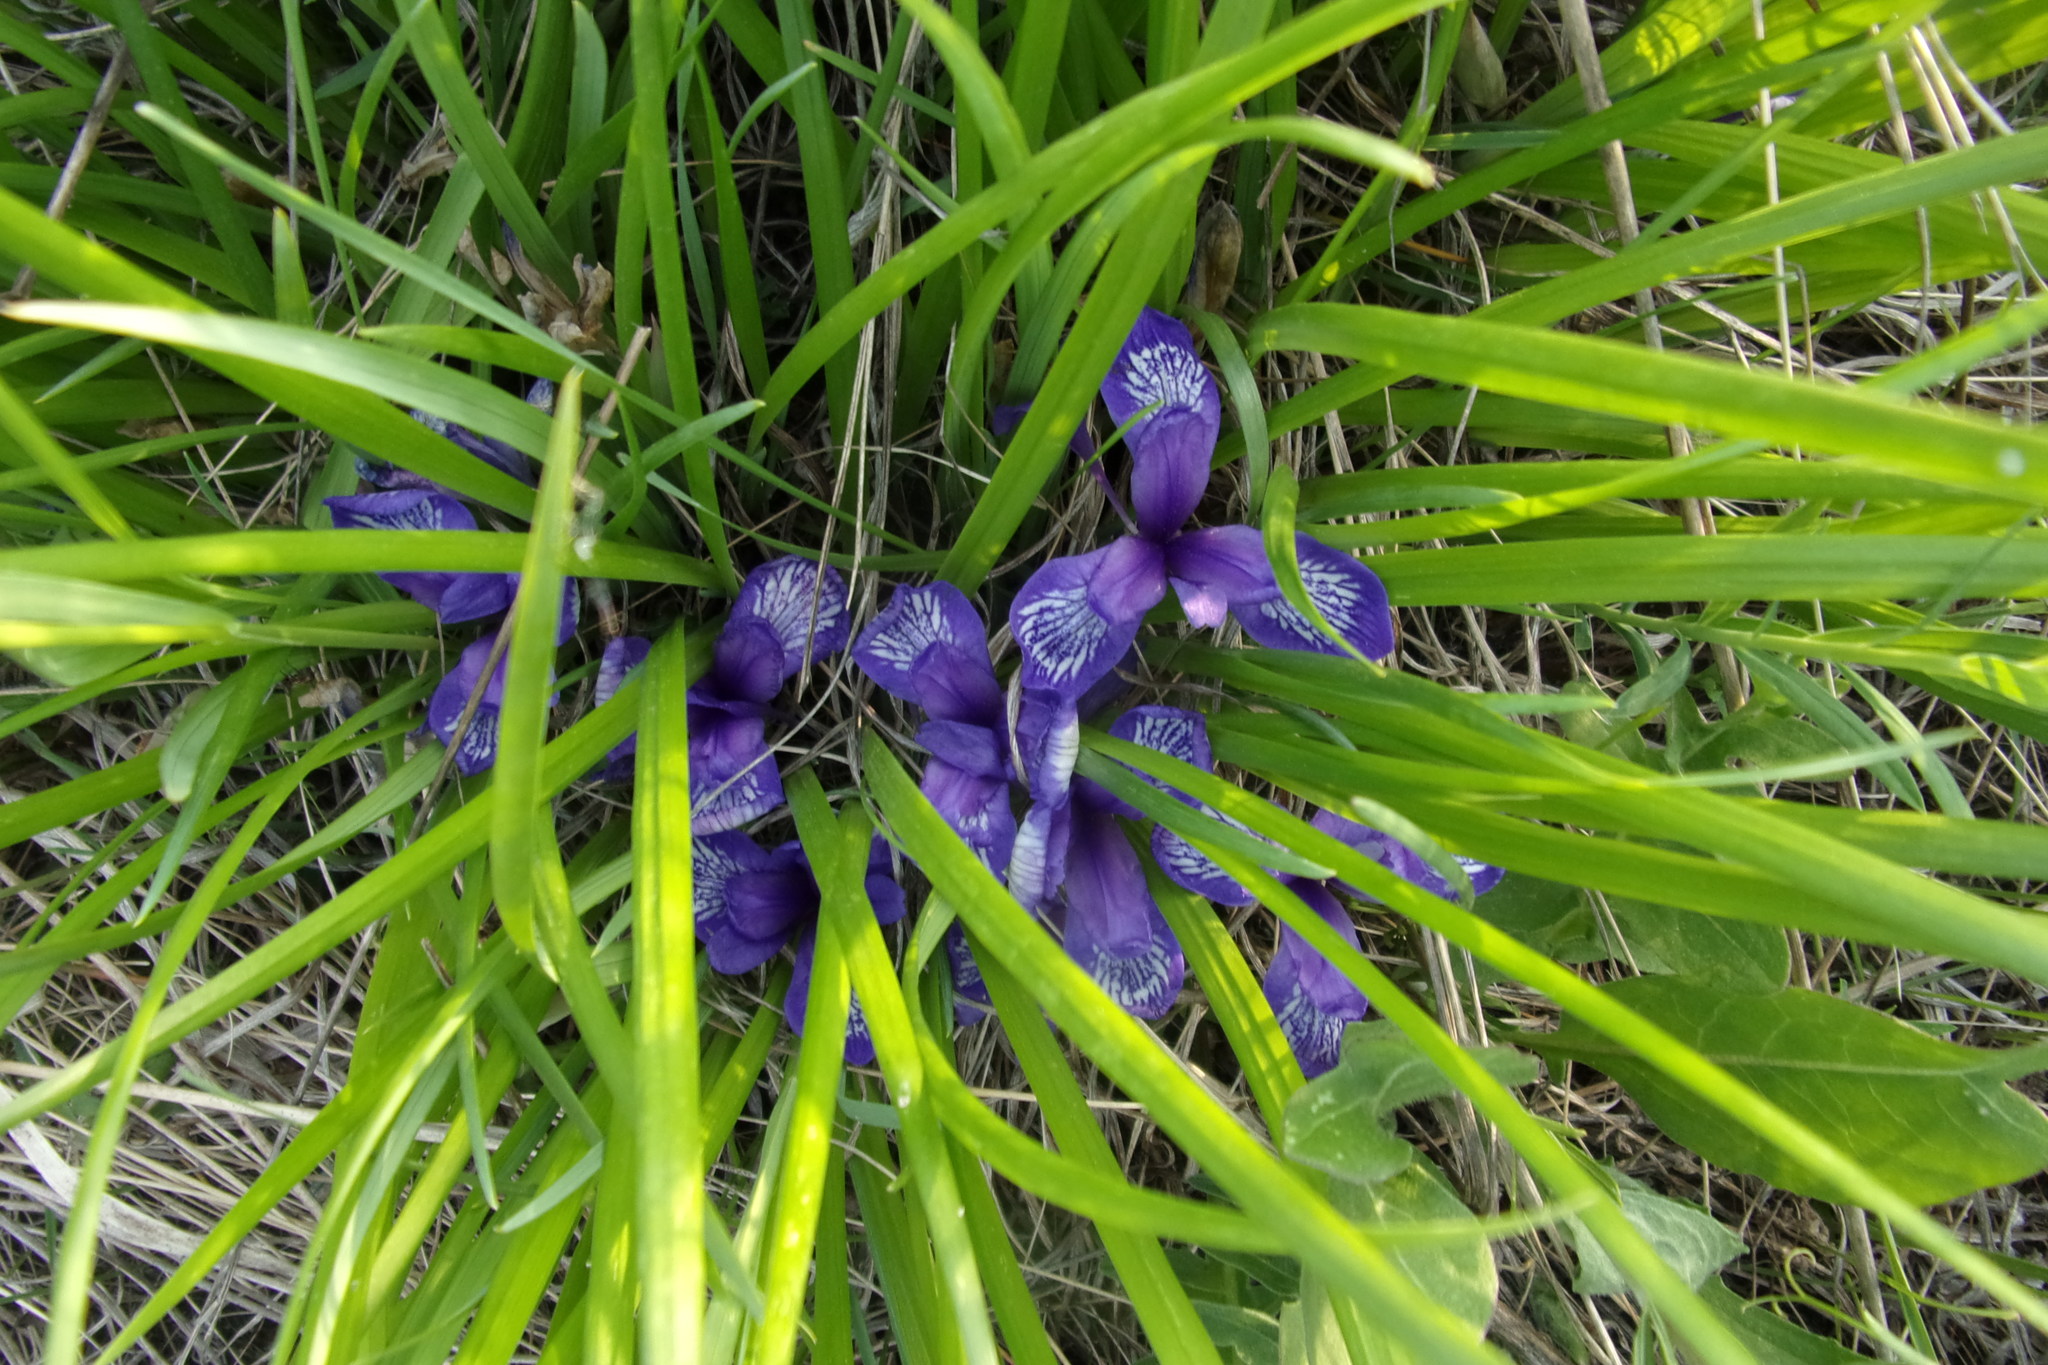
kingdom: Plantae
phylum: Tracheophyta
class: Liliopsida
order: Asparagales
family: Iridaceae
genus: Iris
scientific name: Iris ruthenica
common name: Purple-bract iris
